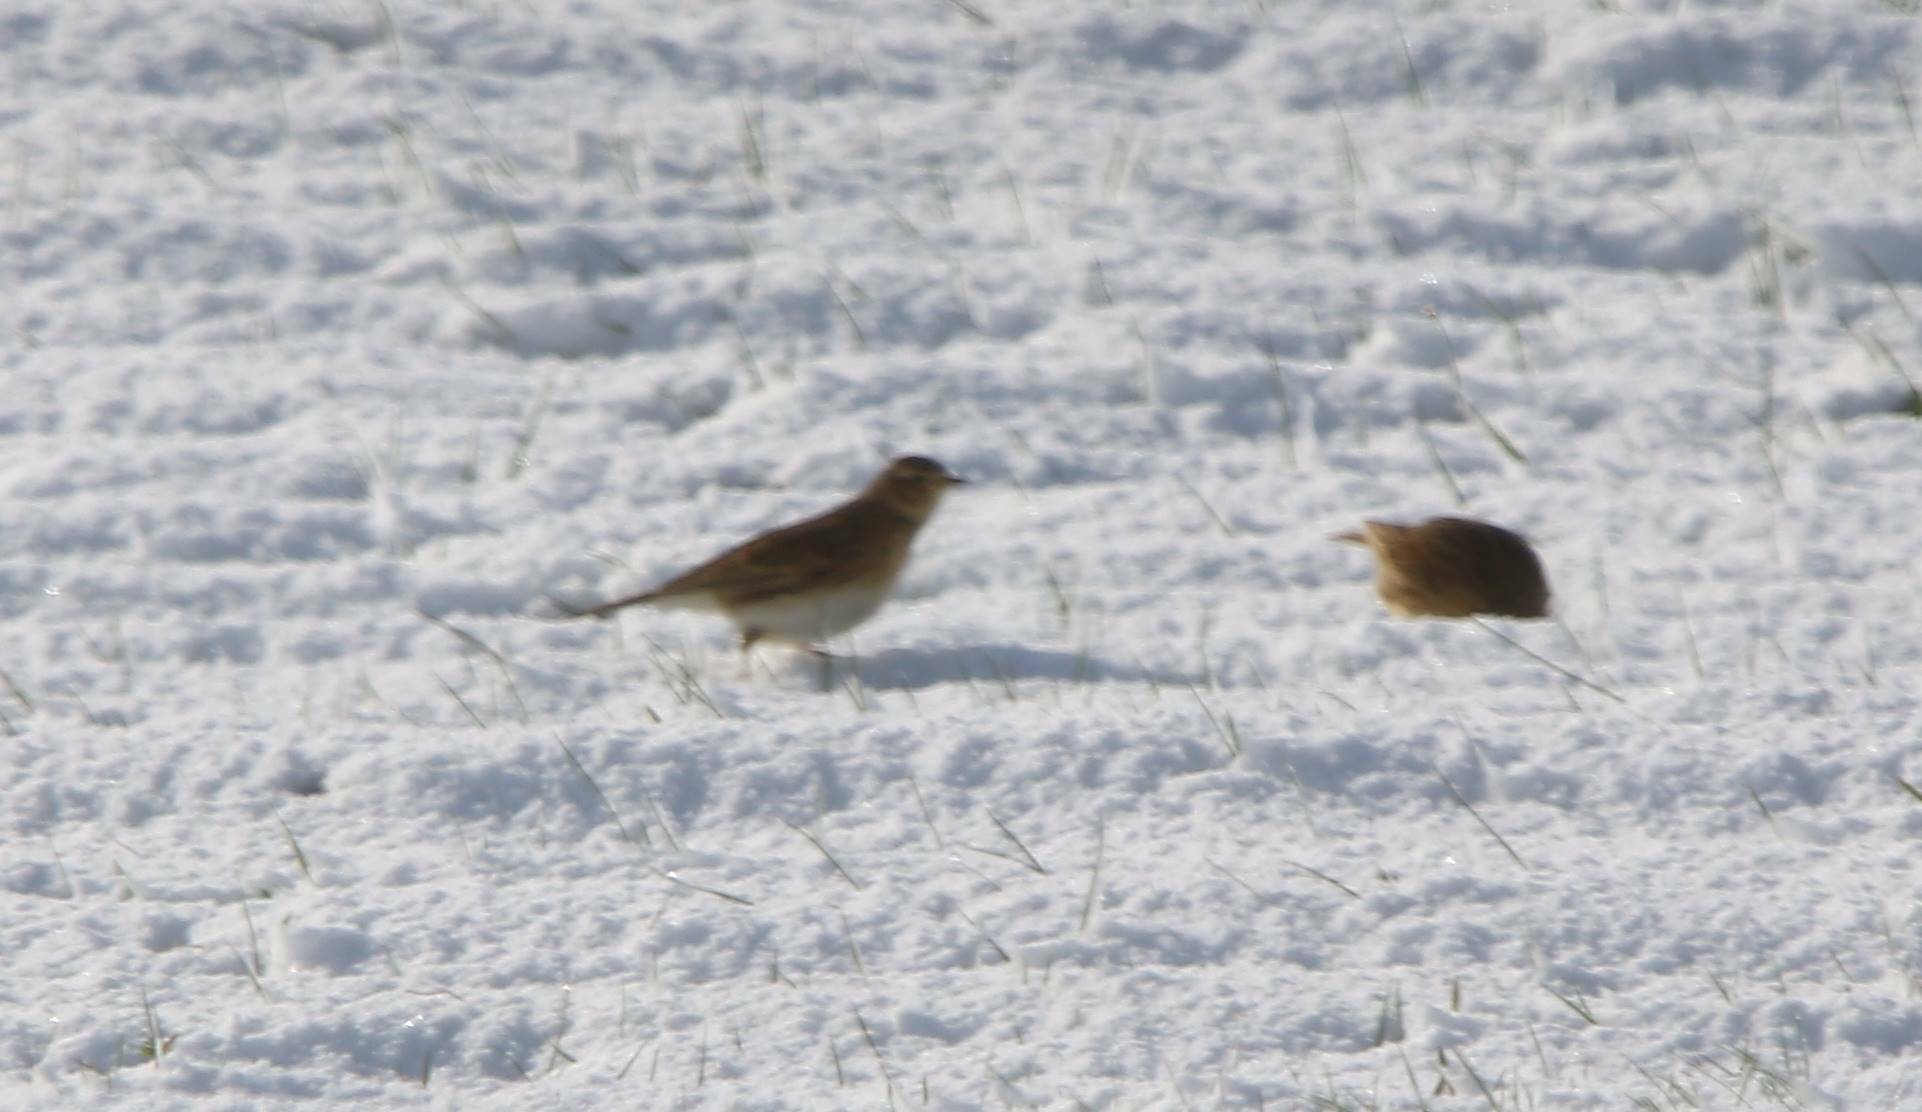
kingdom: Animalia
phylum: Chordata
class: Aves
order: Passeriformes
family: Alaudidae
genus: Alauda
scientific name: Alauda arvensis
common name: Eurasian skylark
